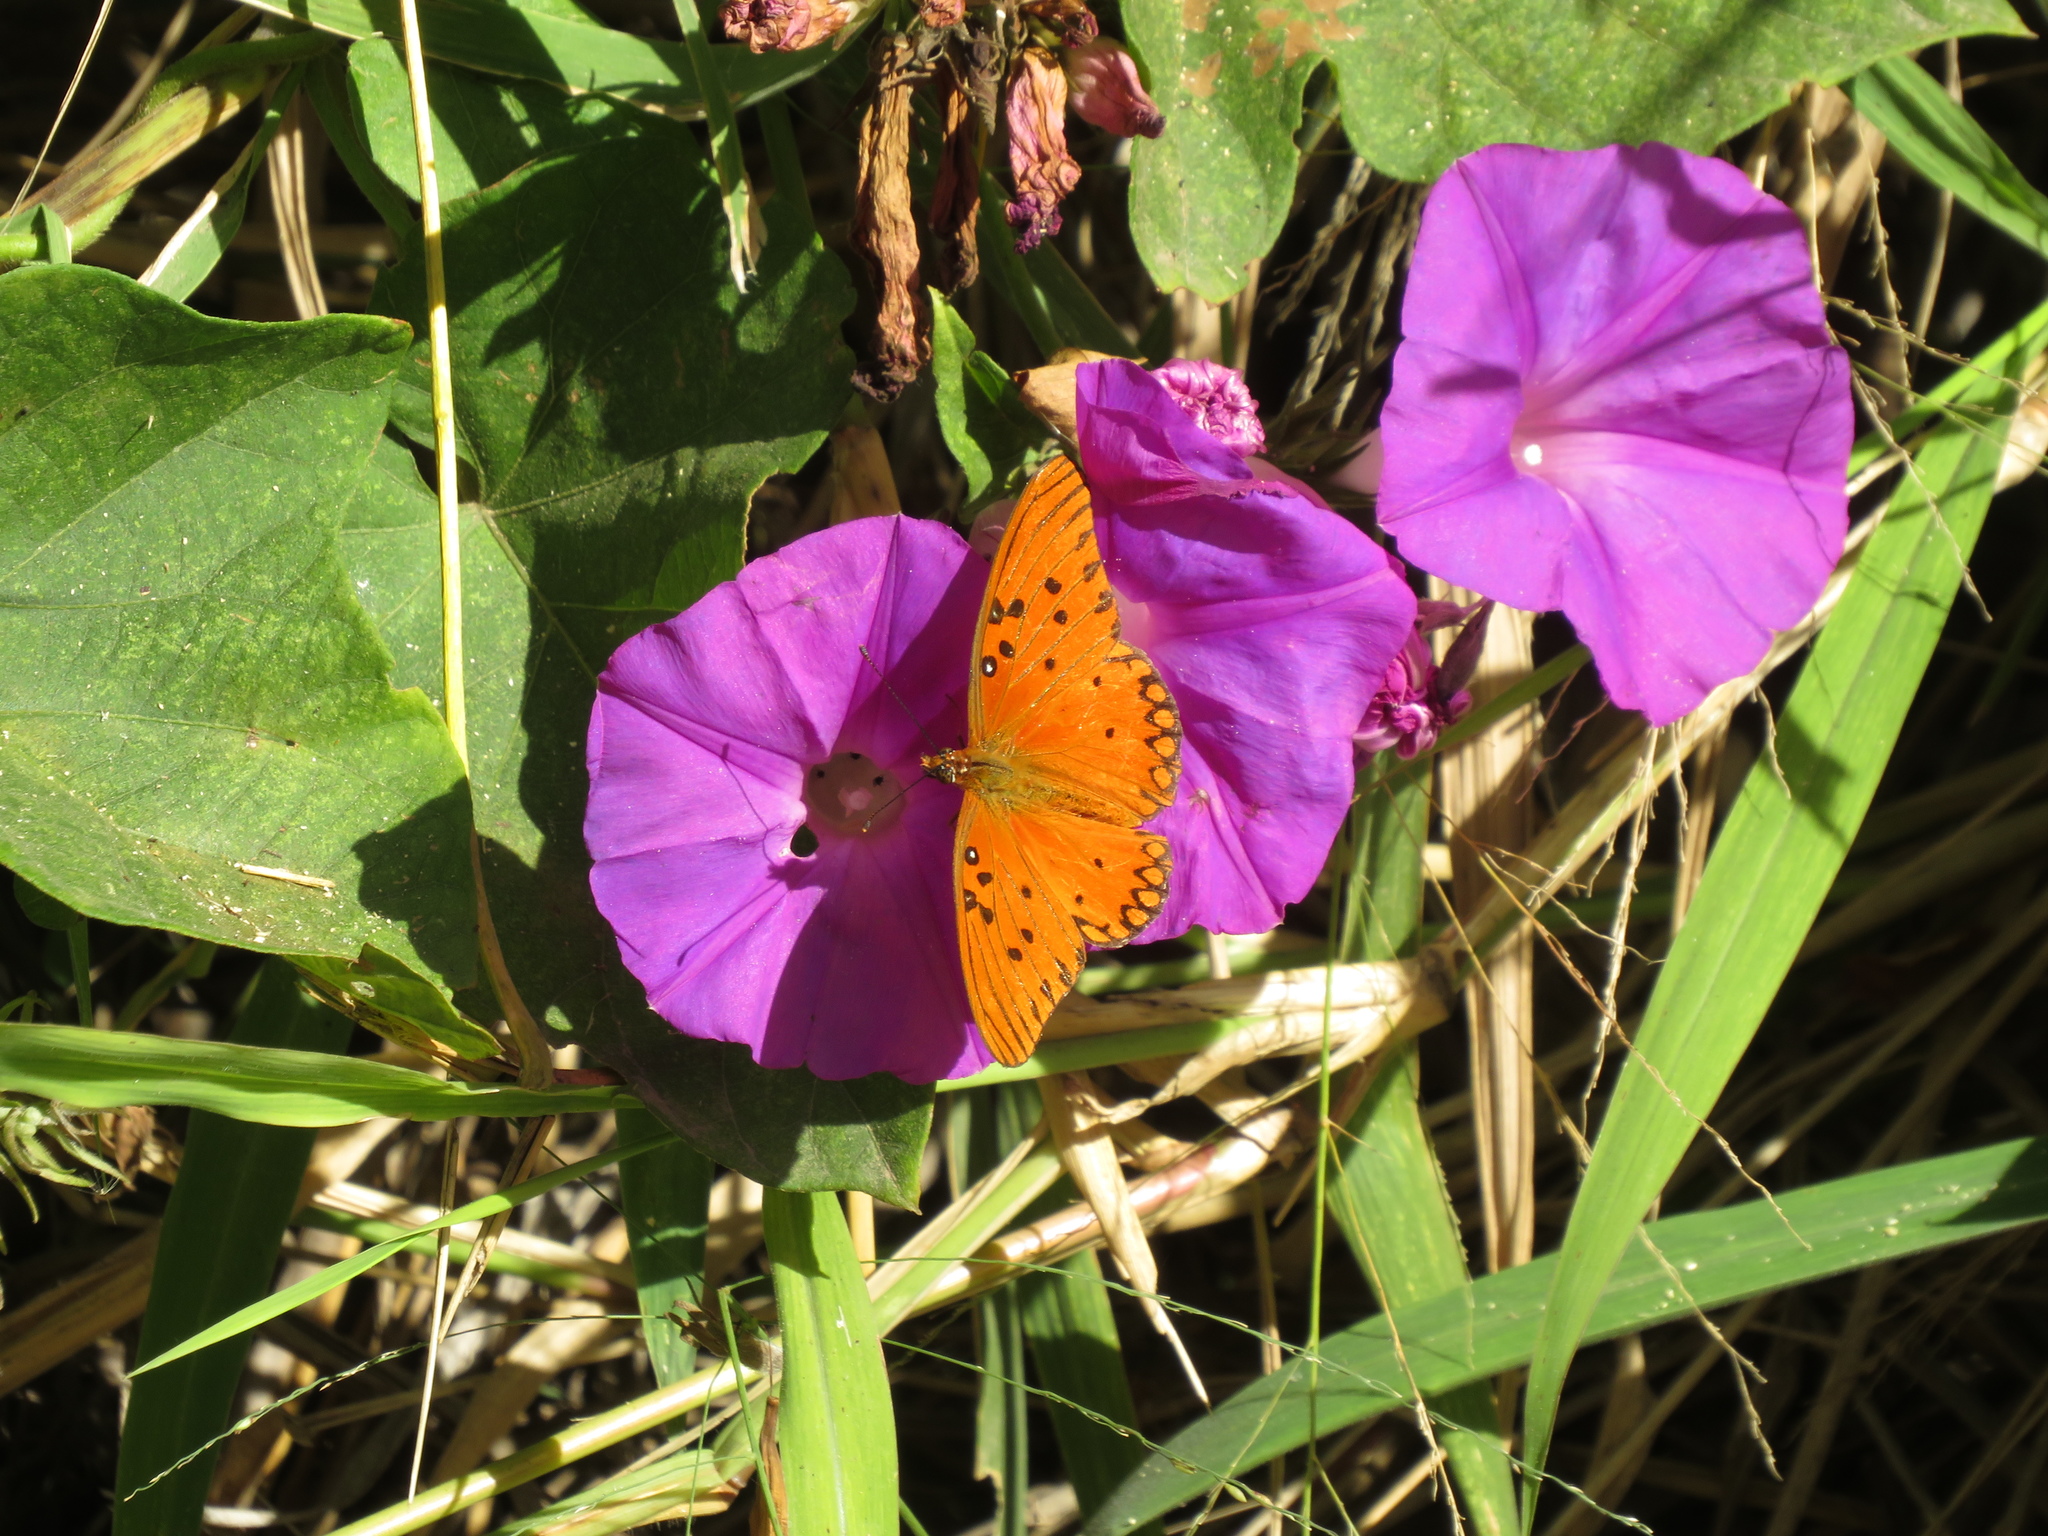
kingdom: Animalia
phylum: Arthropoda
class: Insecta
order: Lepidoptera
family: Nymphalidae
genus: Dione
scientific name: Dione vanillae
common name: Gulf fritillary
